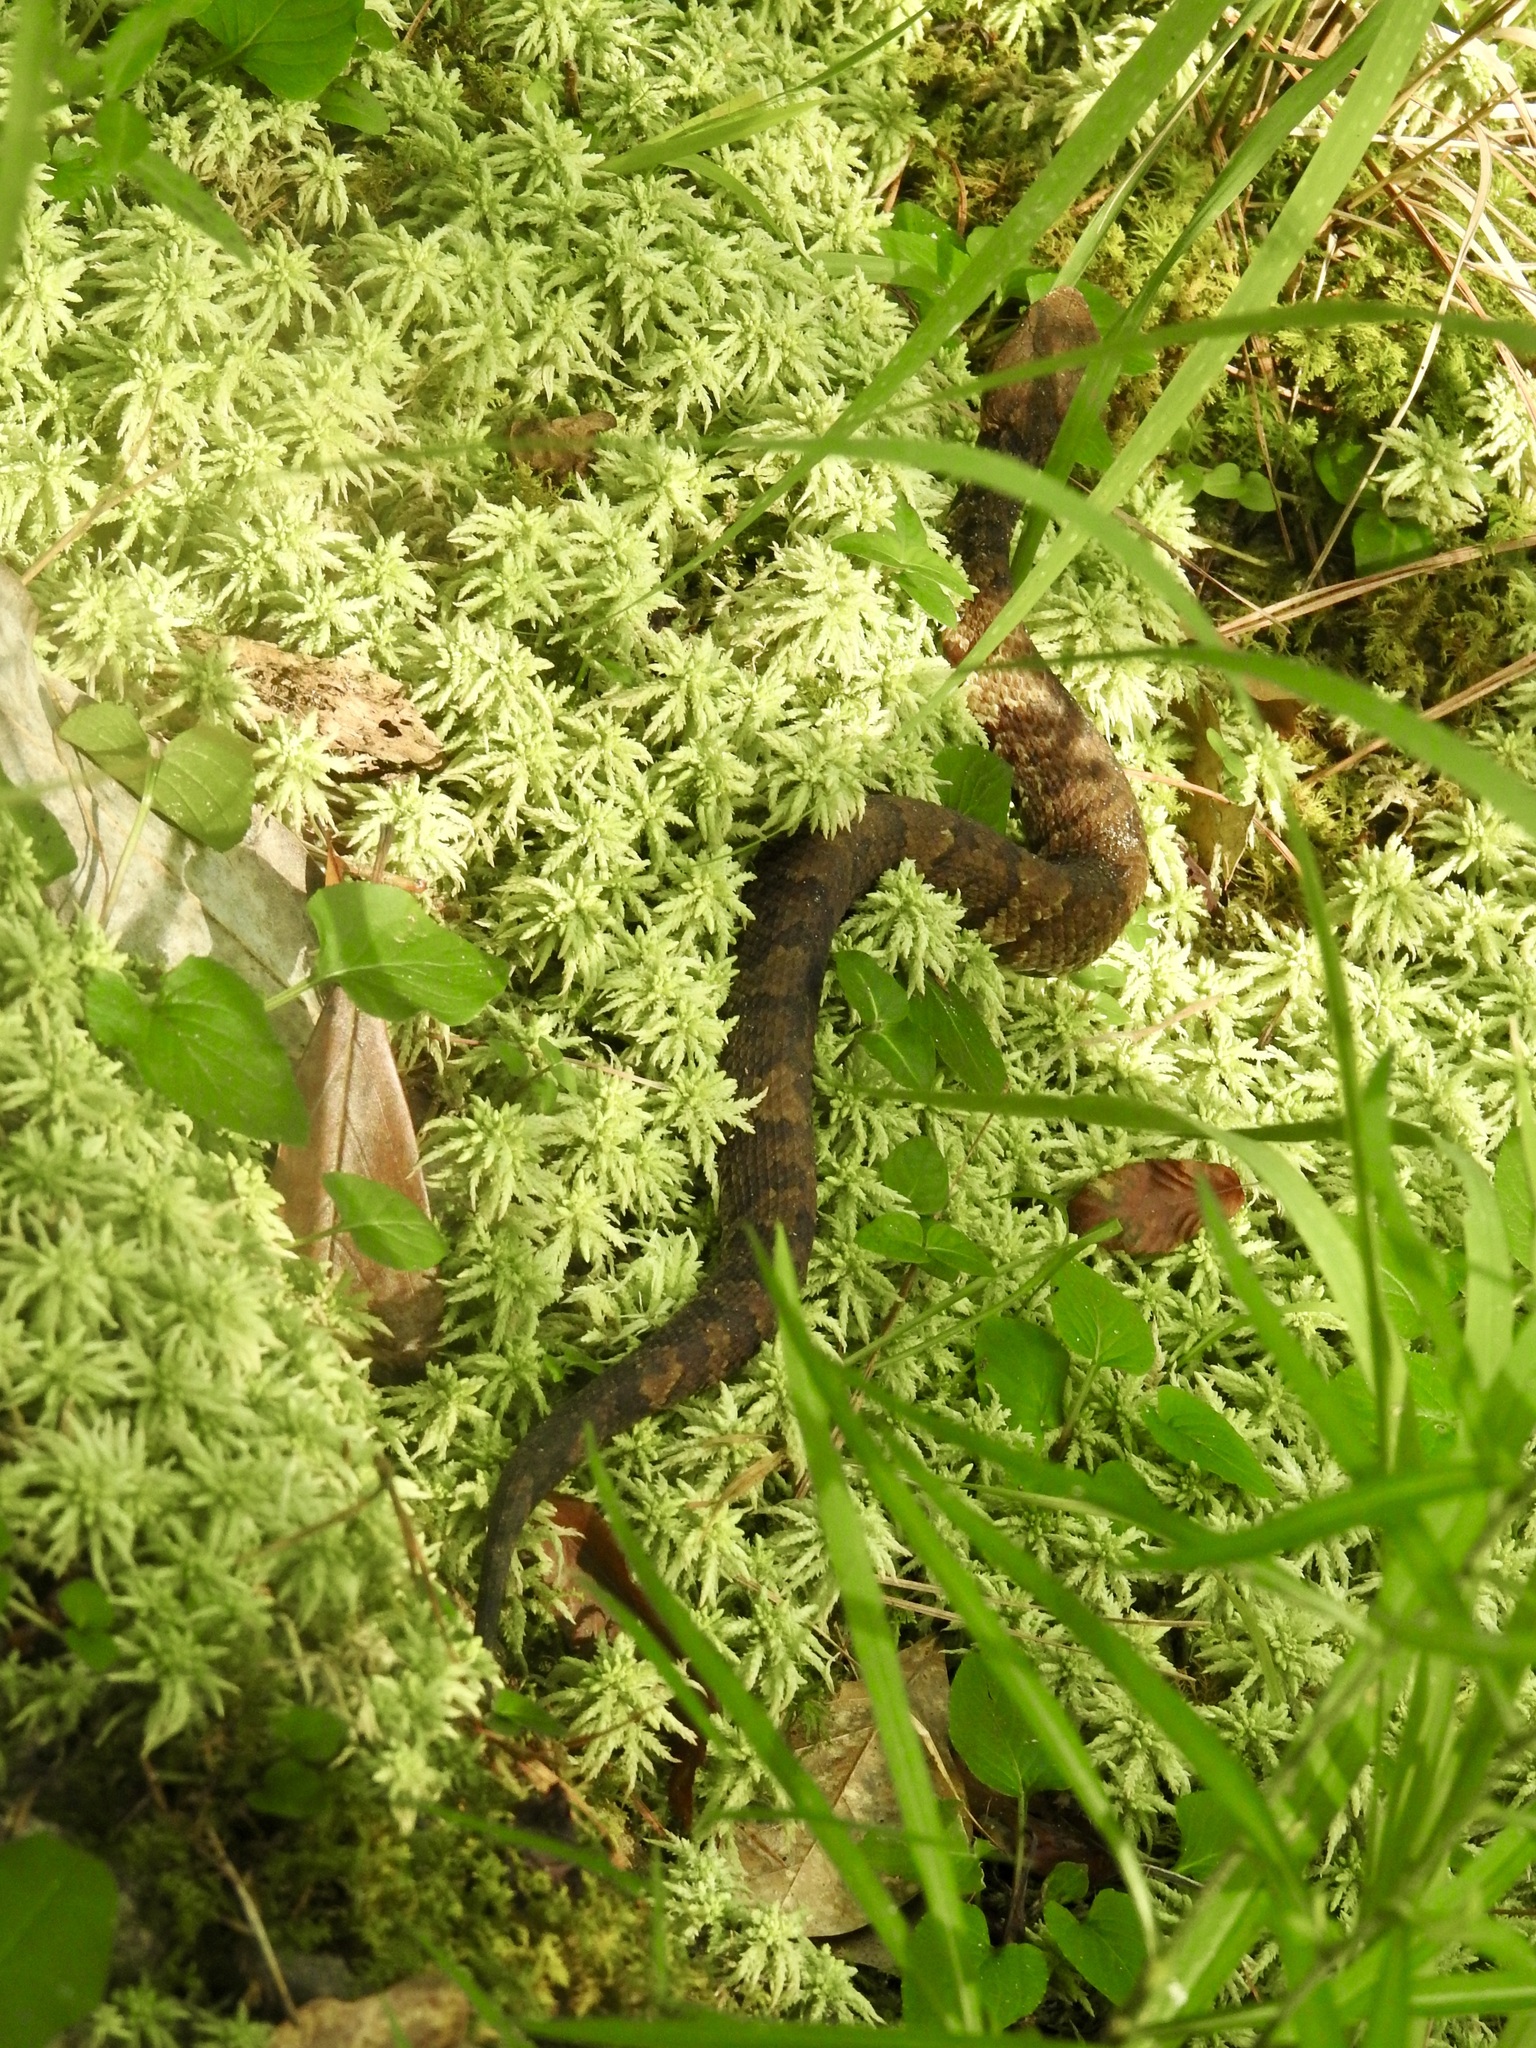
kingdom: Animalia
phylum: Chordata
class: Squamata
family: Viperidae
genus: Agkistrodon
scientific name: Agkistrodon piscivorus
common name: Cottonmouth
